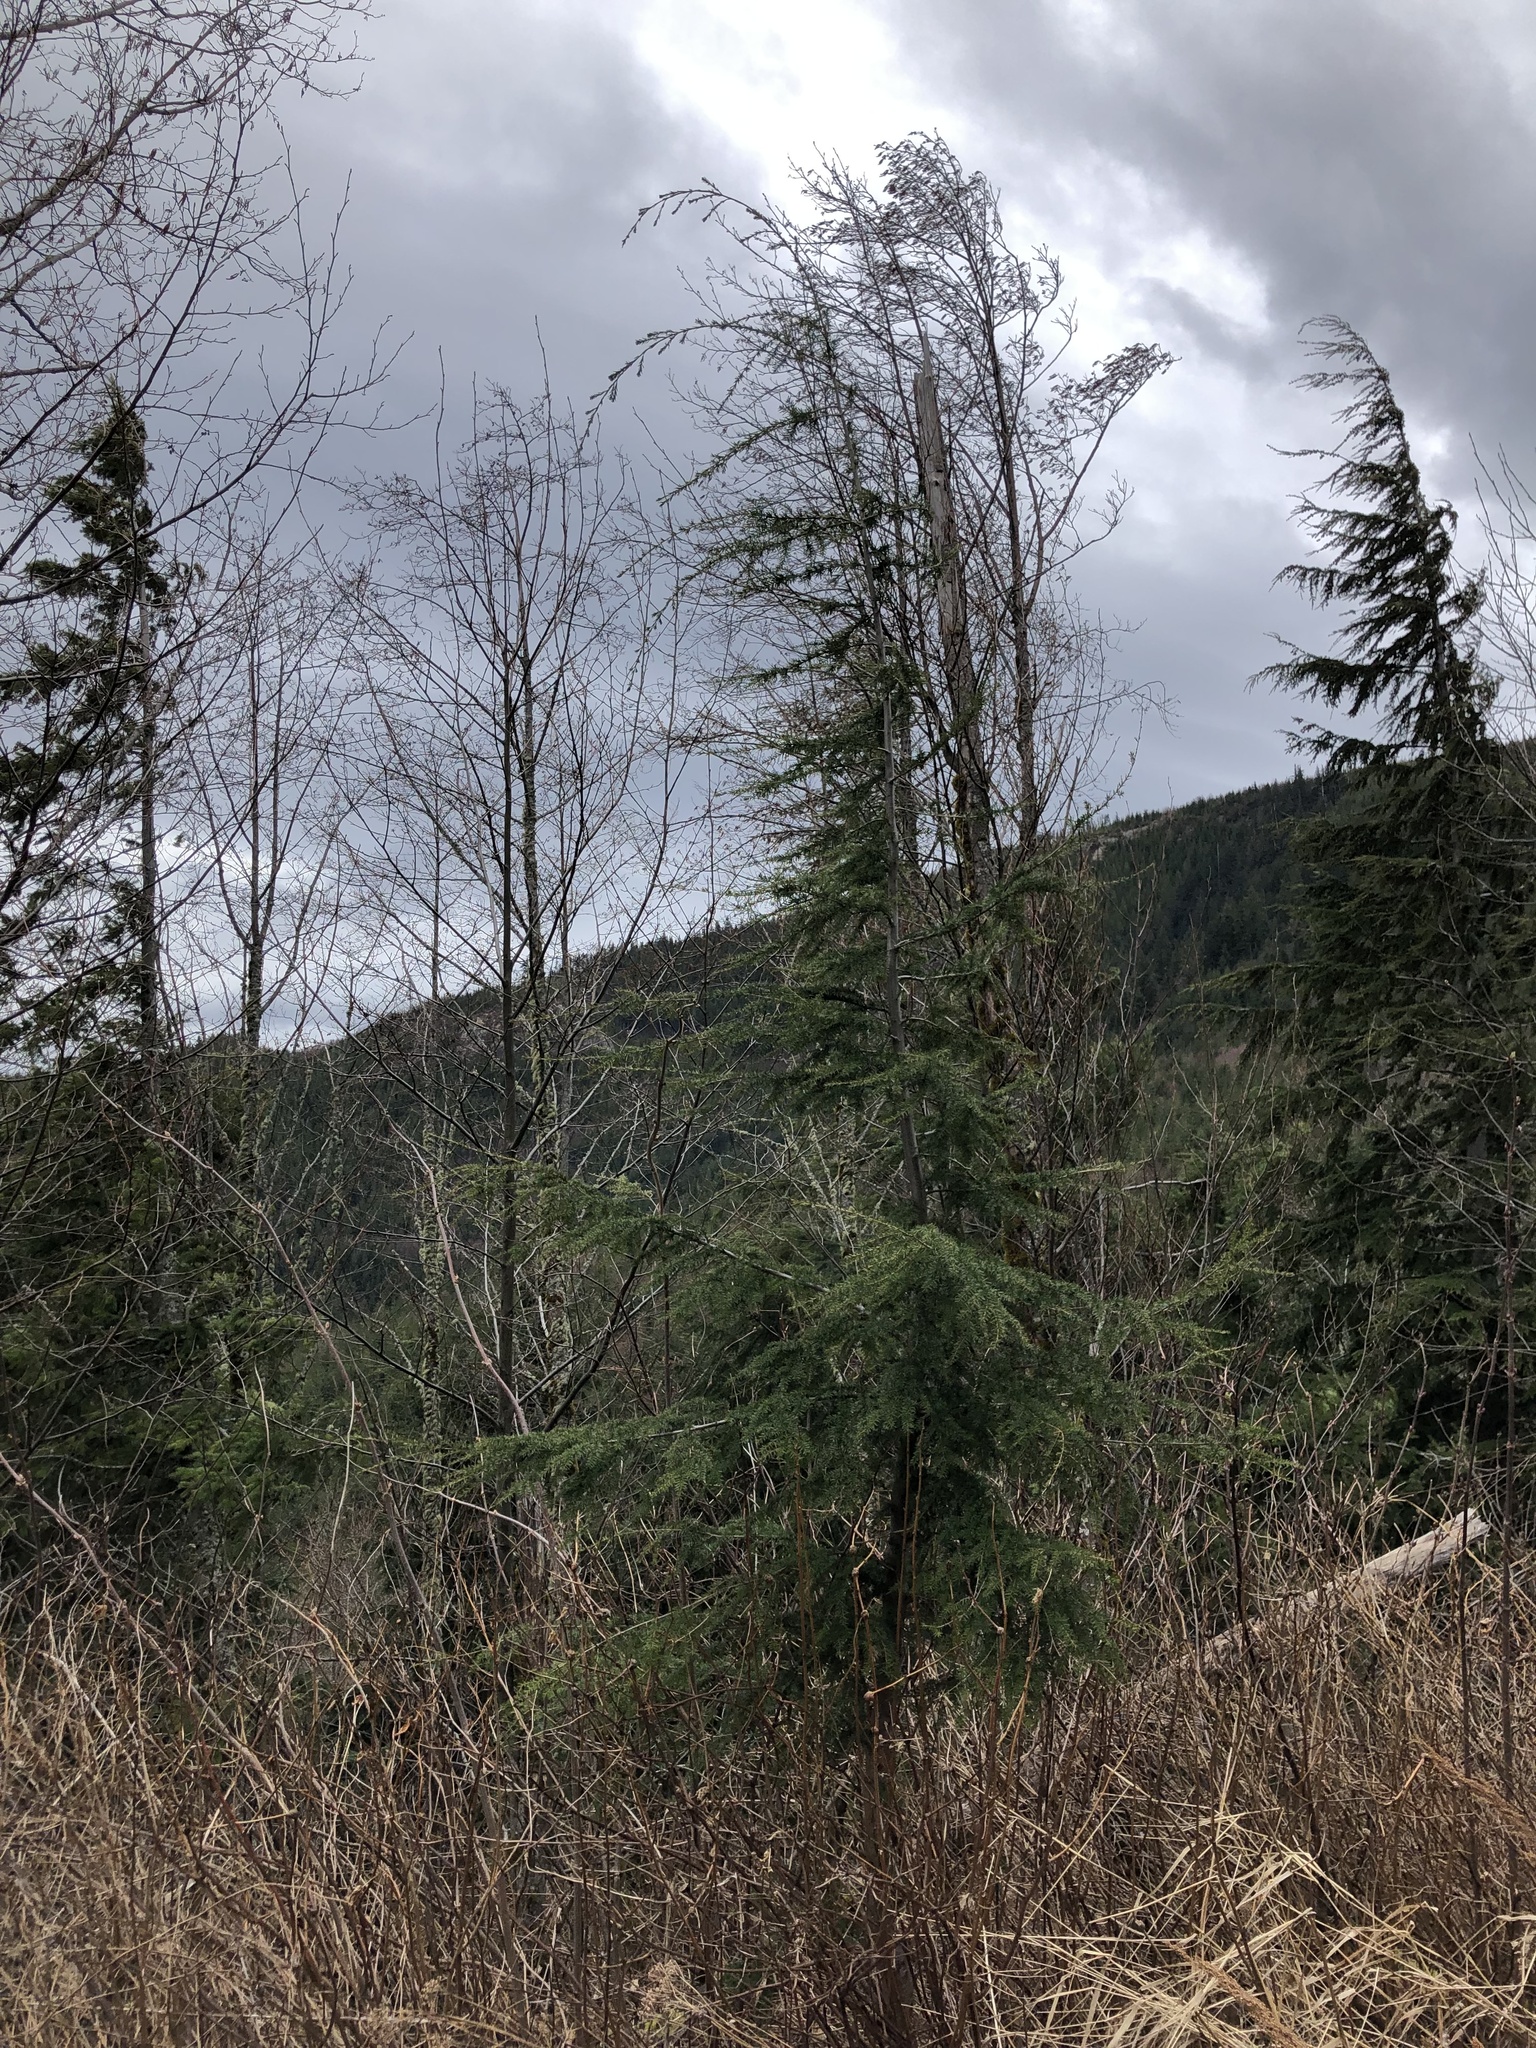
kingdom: Plantae
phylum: Tracheophyta
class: Pinopsida
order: Pinales
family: Pinaceae
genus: Tsuga
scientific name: Tsuga heterophylla
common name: Western hemlock
